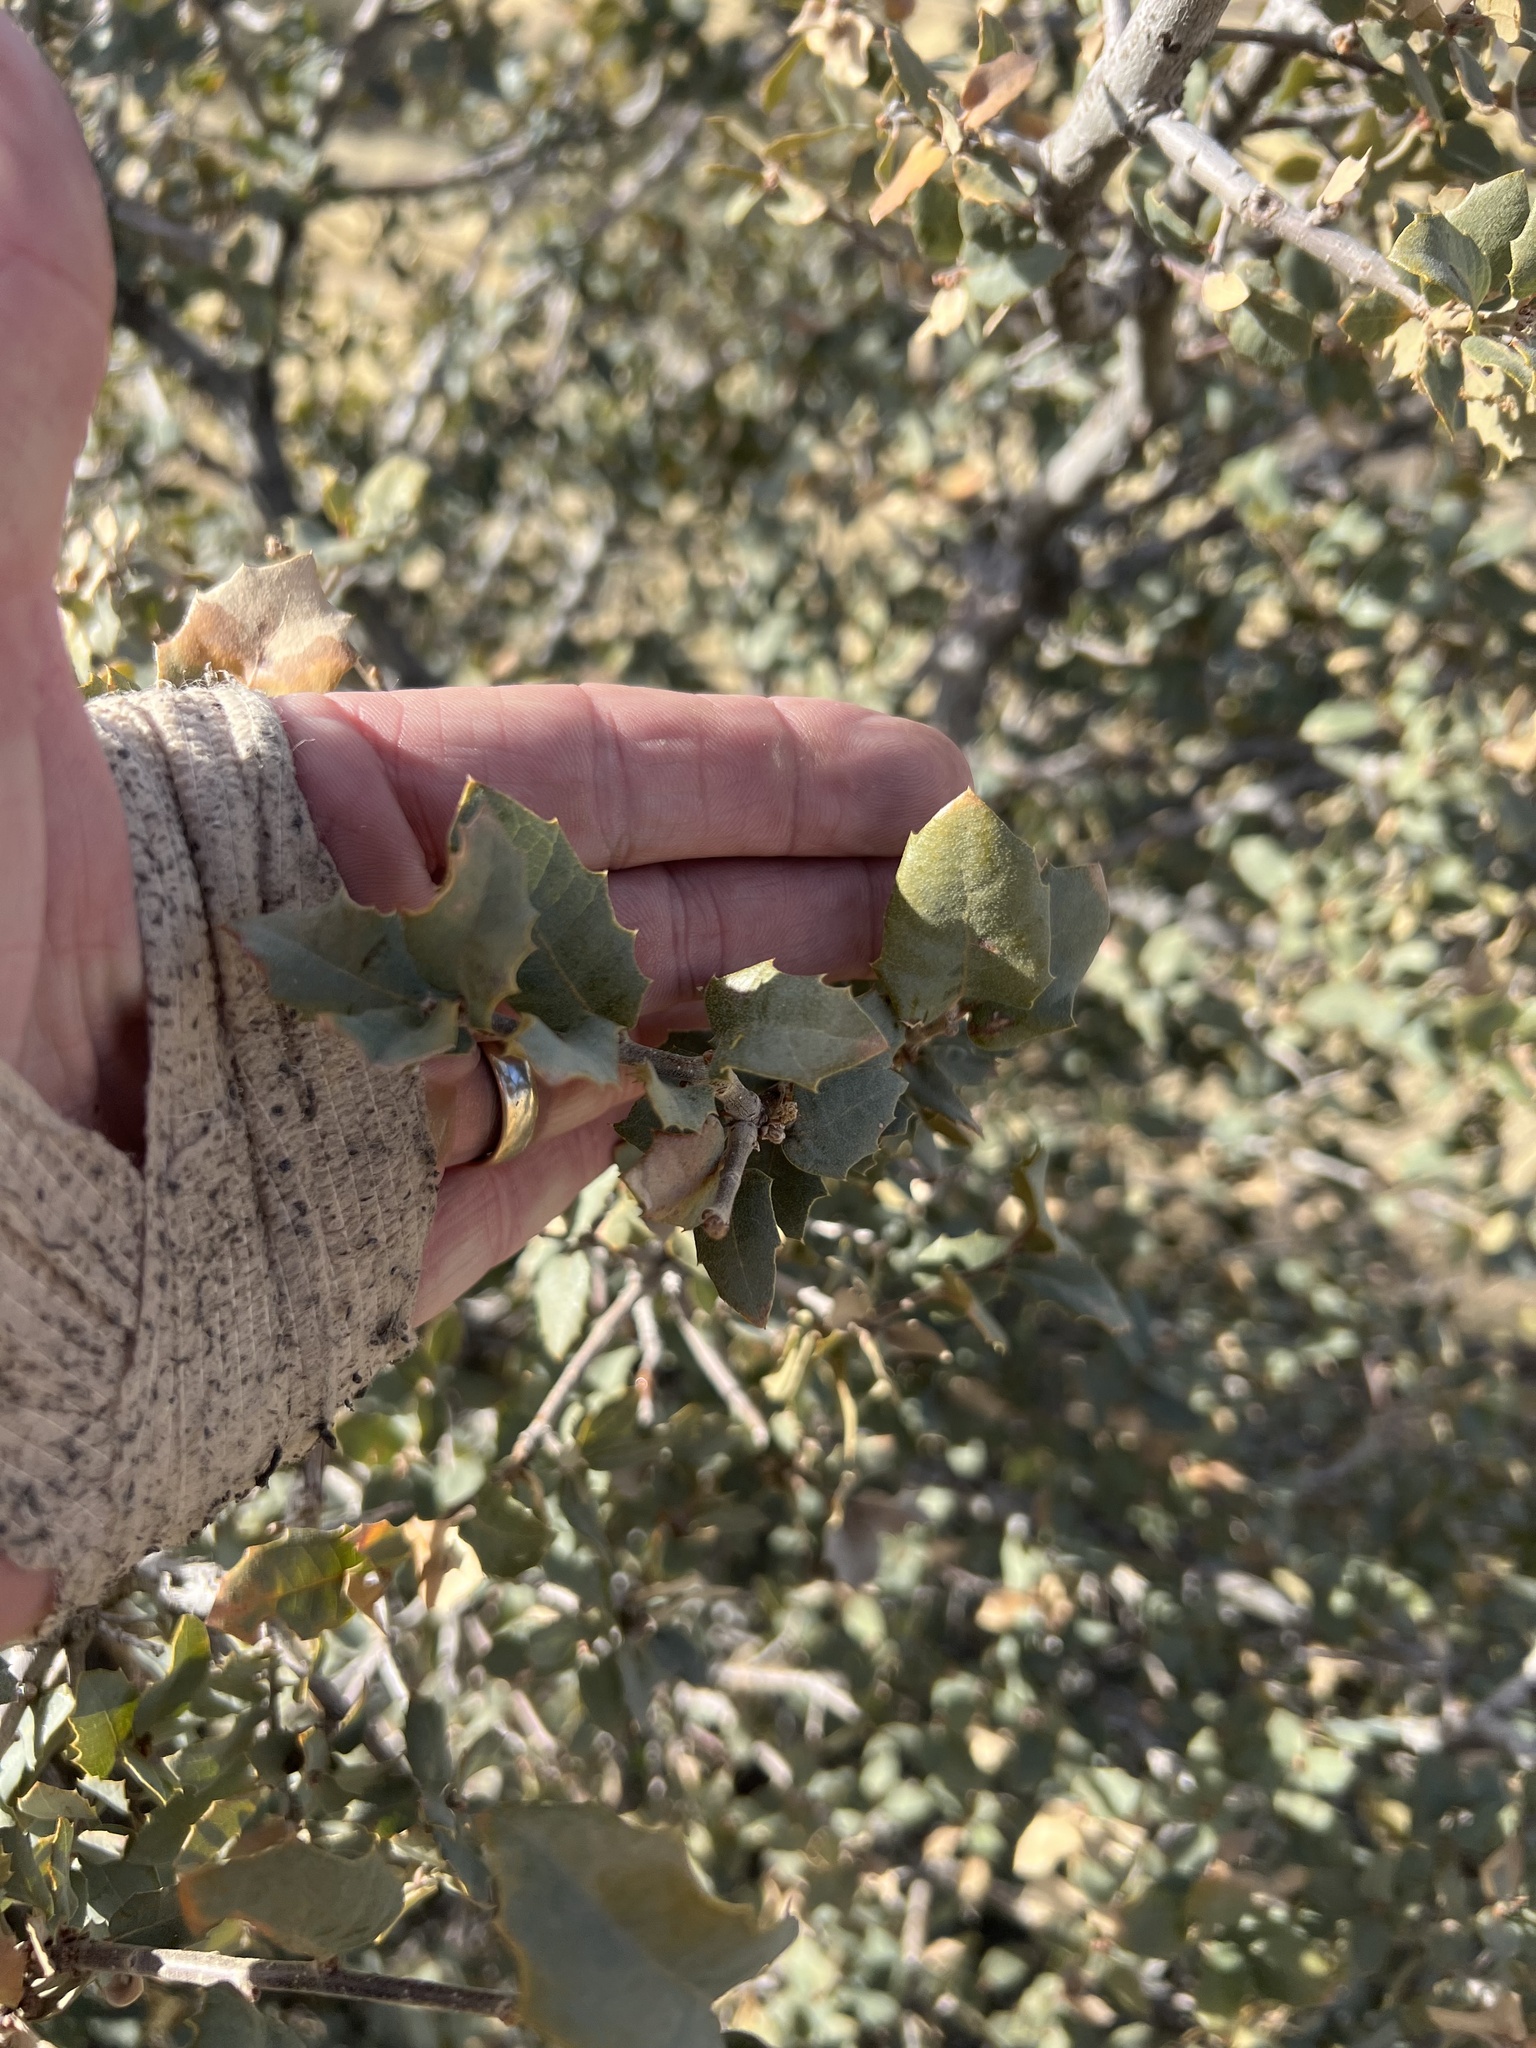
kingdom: Plantae
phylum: Tracheophyta
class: Magnoliopsida
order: Fagales
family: Fagaceae
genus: Quercus
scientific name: Quercus turbinella
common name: Sonoran scrub oak
